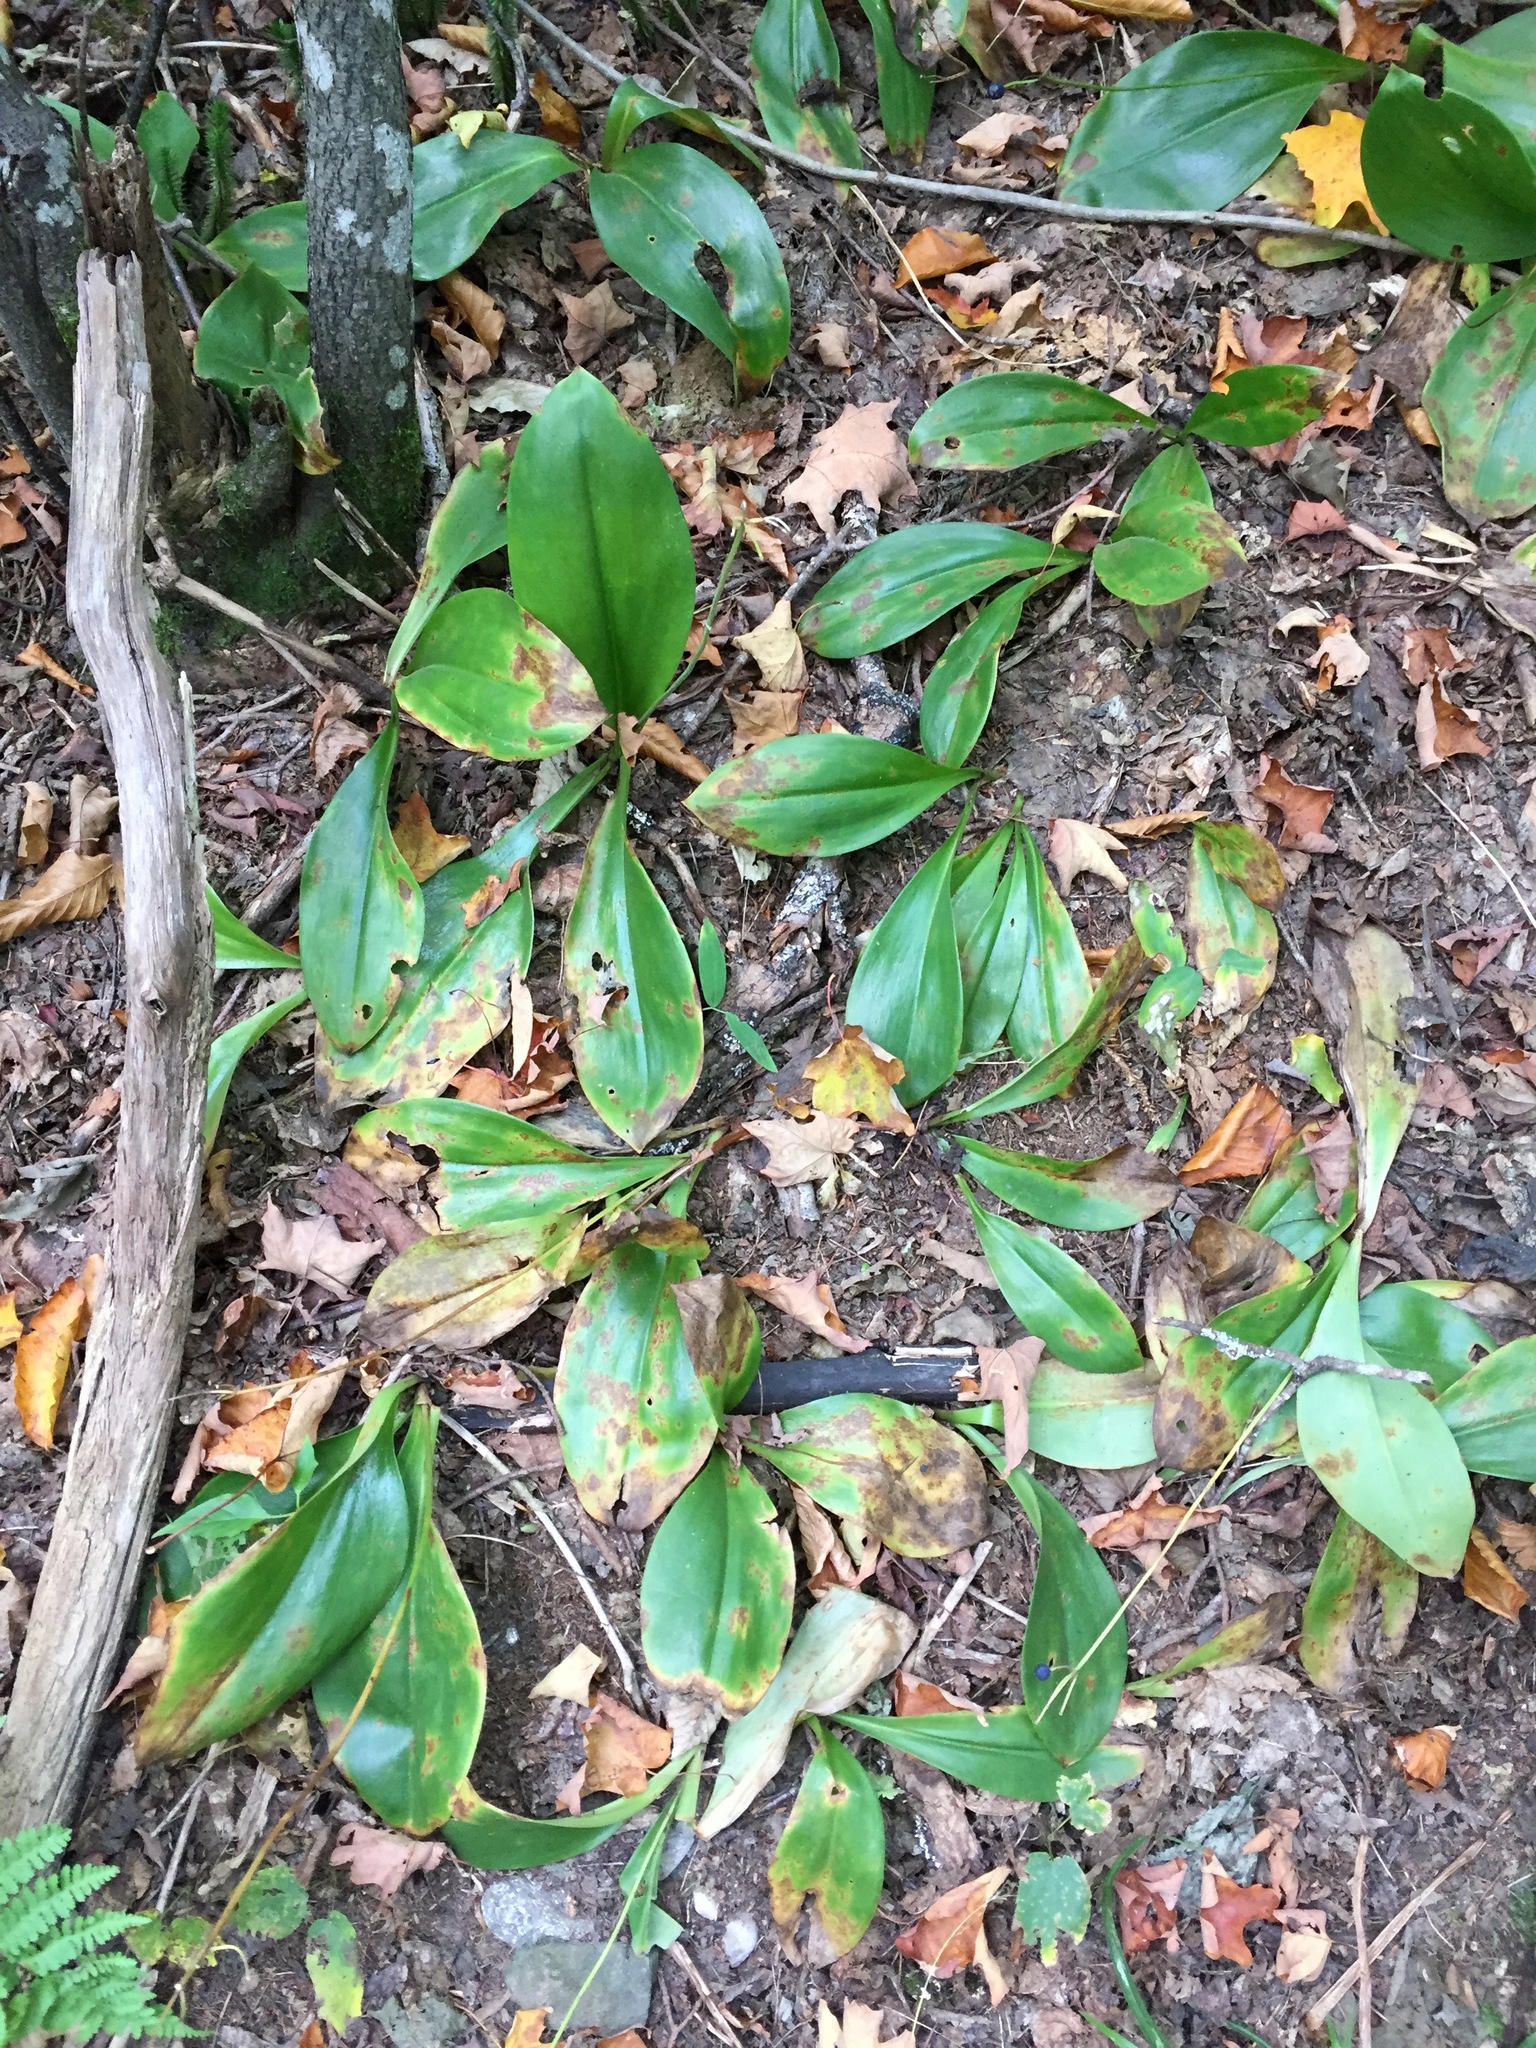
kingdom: Plantae
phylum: Tracheophyta
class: Liliopsida
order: Liliales
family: Liliaceae
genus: Clintonia
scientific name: Clintonia borealis
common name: Yellow clintonia
